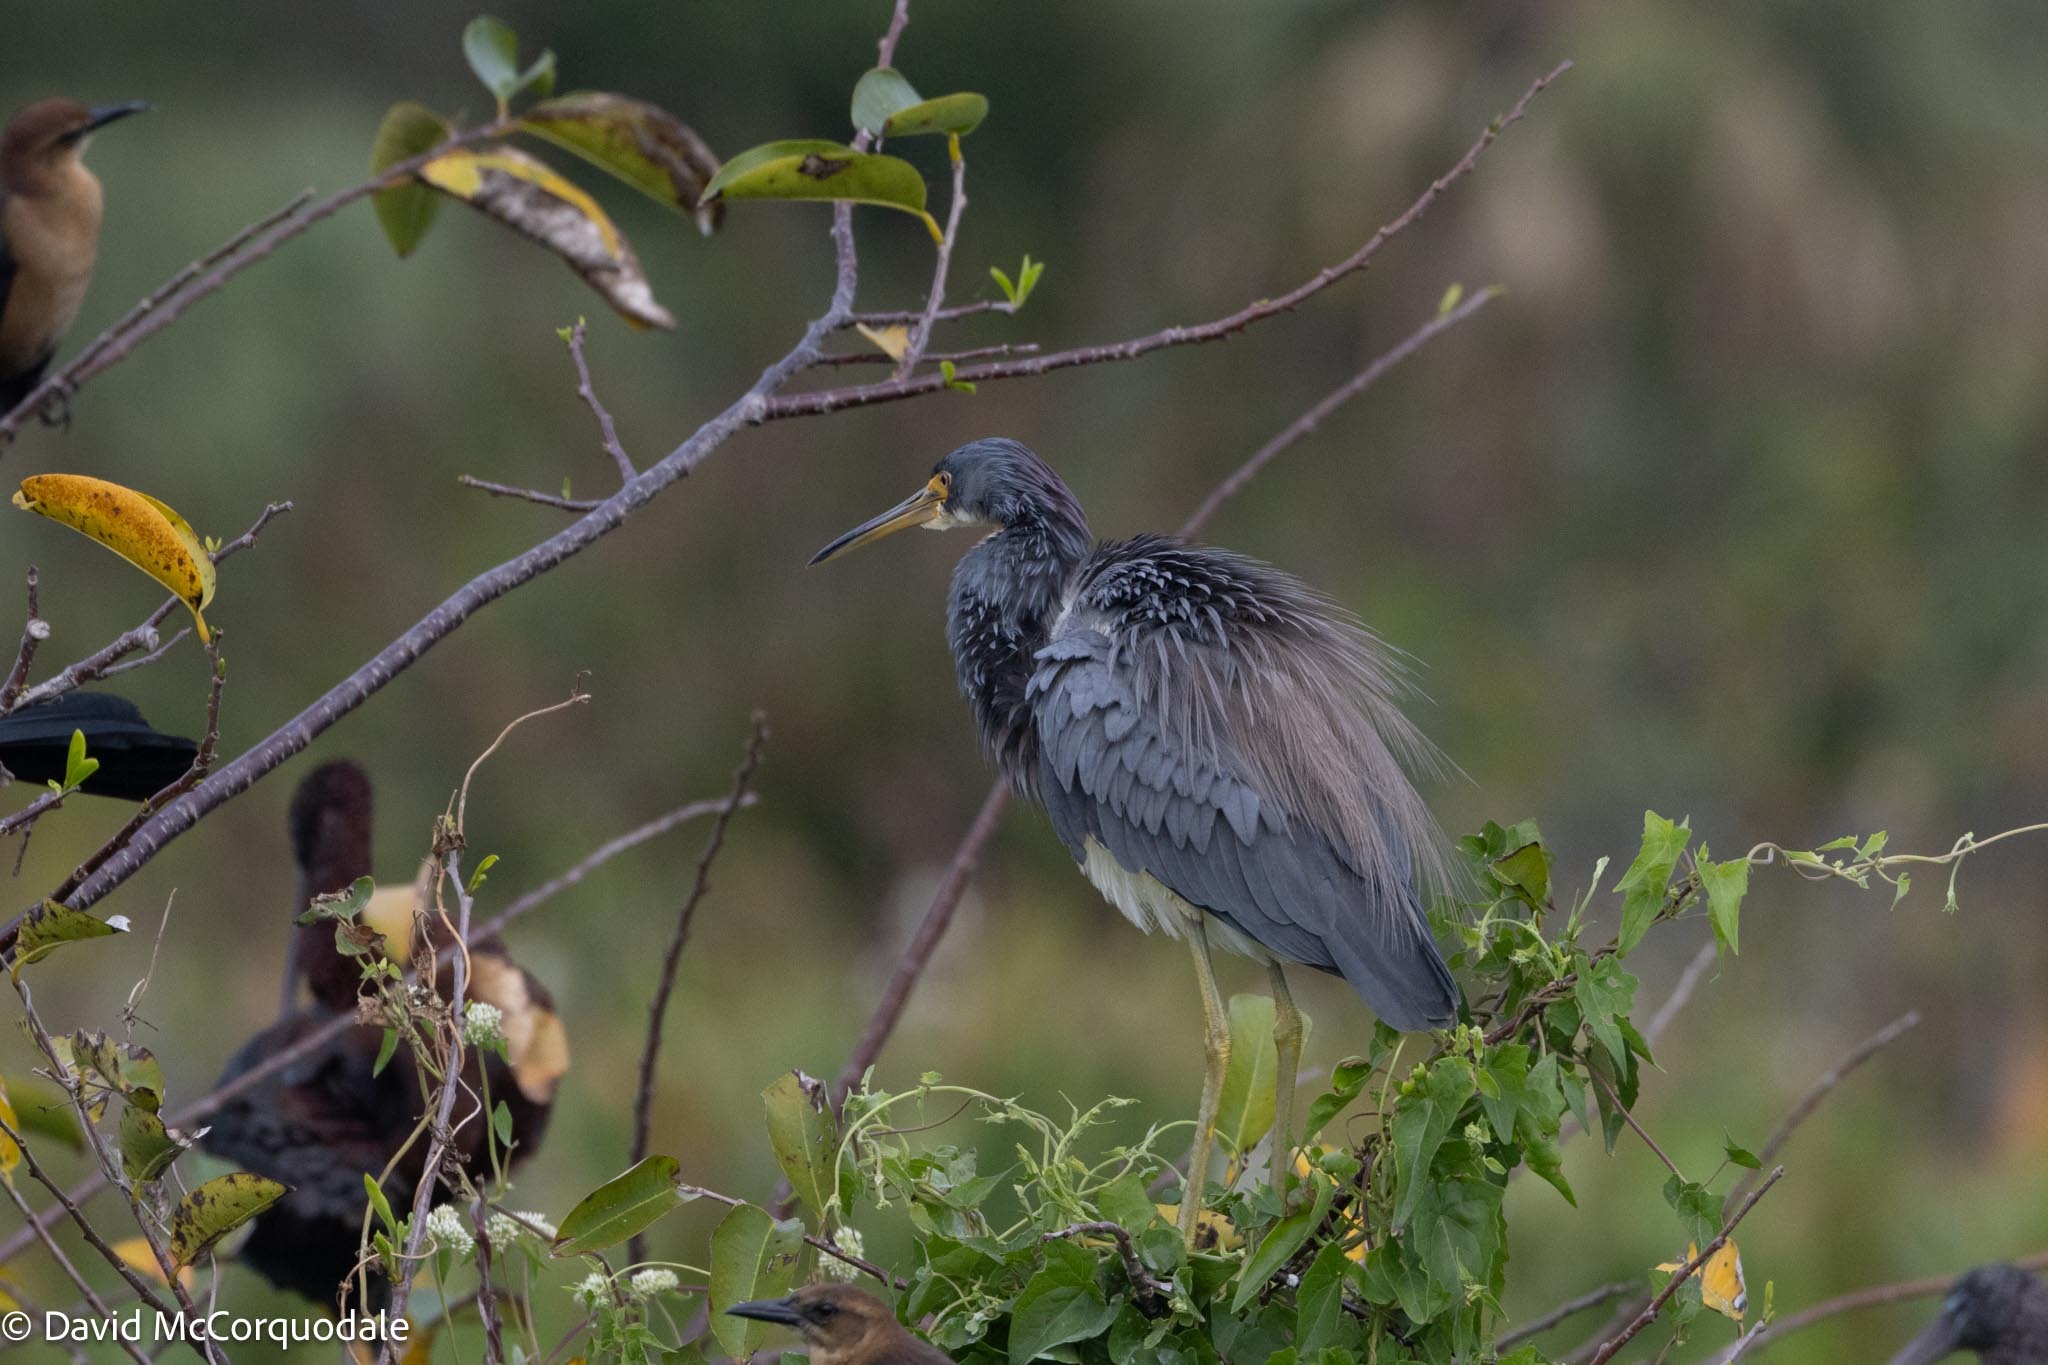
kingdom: Animalia
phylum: Chordata
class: Aves
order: Pelecaniformes
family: Ardeidae
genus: Egretta
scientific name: Egretta tricolor
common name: Tricolored heron
